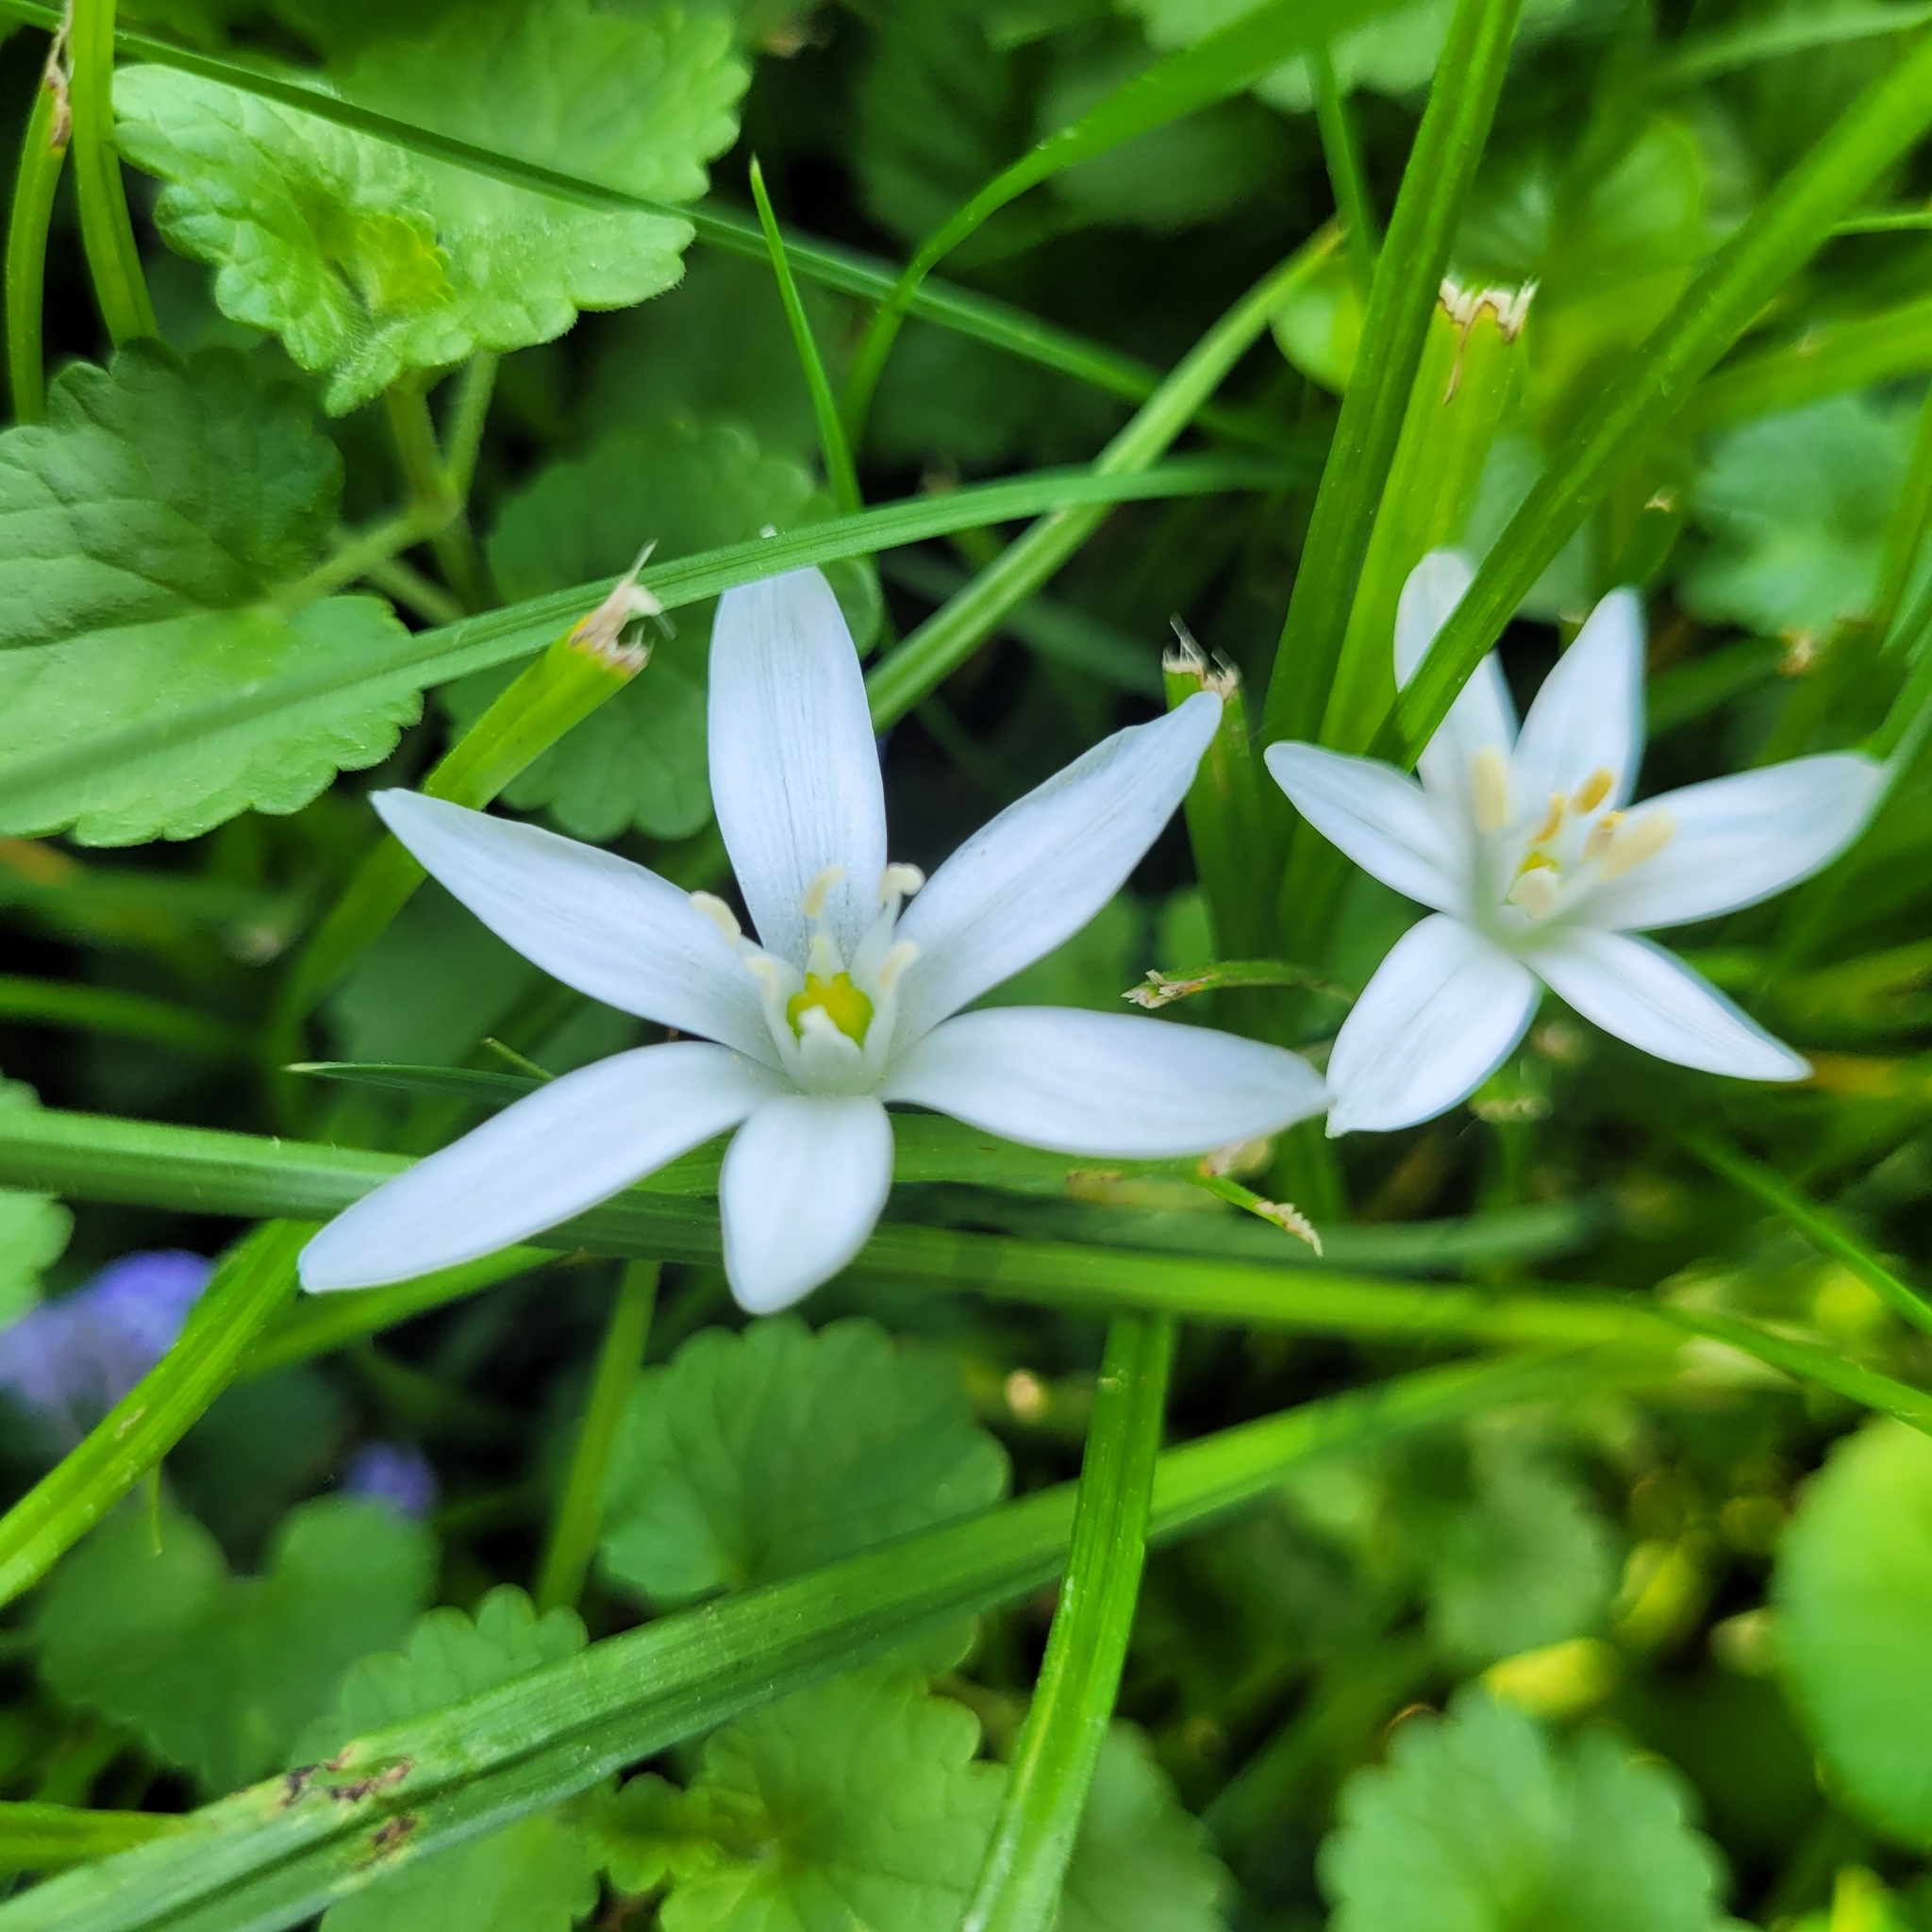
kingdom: Plantae
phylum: Tracheophyta
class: Liliopsida
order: Asparagales
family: Asparagaceae
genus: Ornithogalum
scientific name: Ornithogalum umbellatum
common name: Garden star-of-bethlehem
